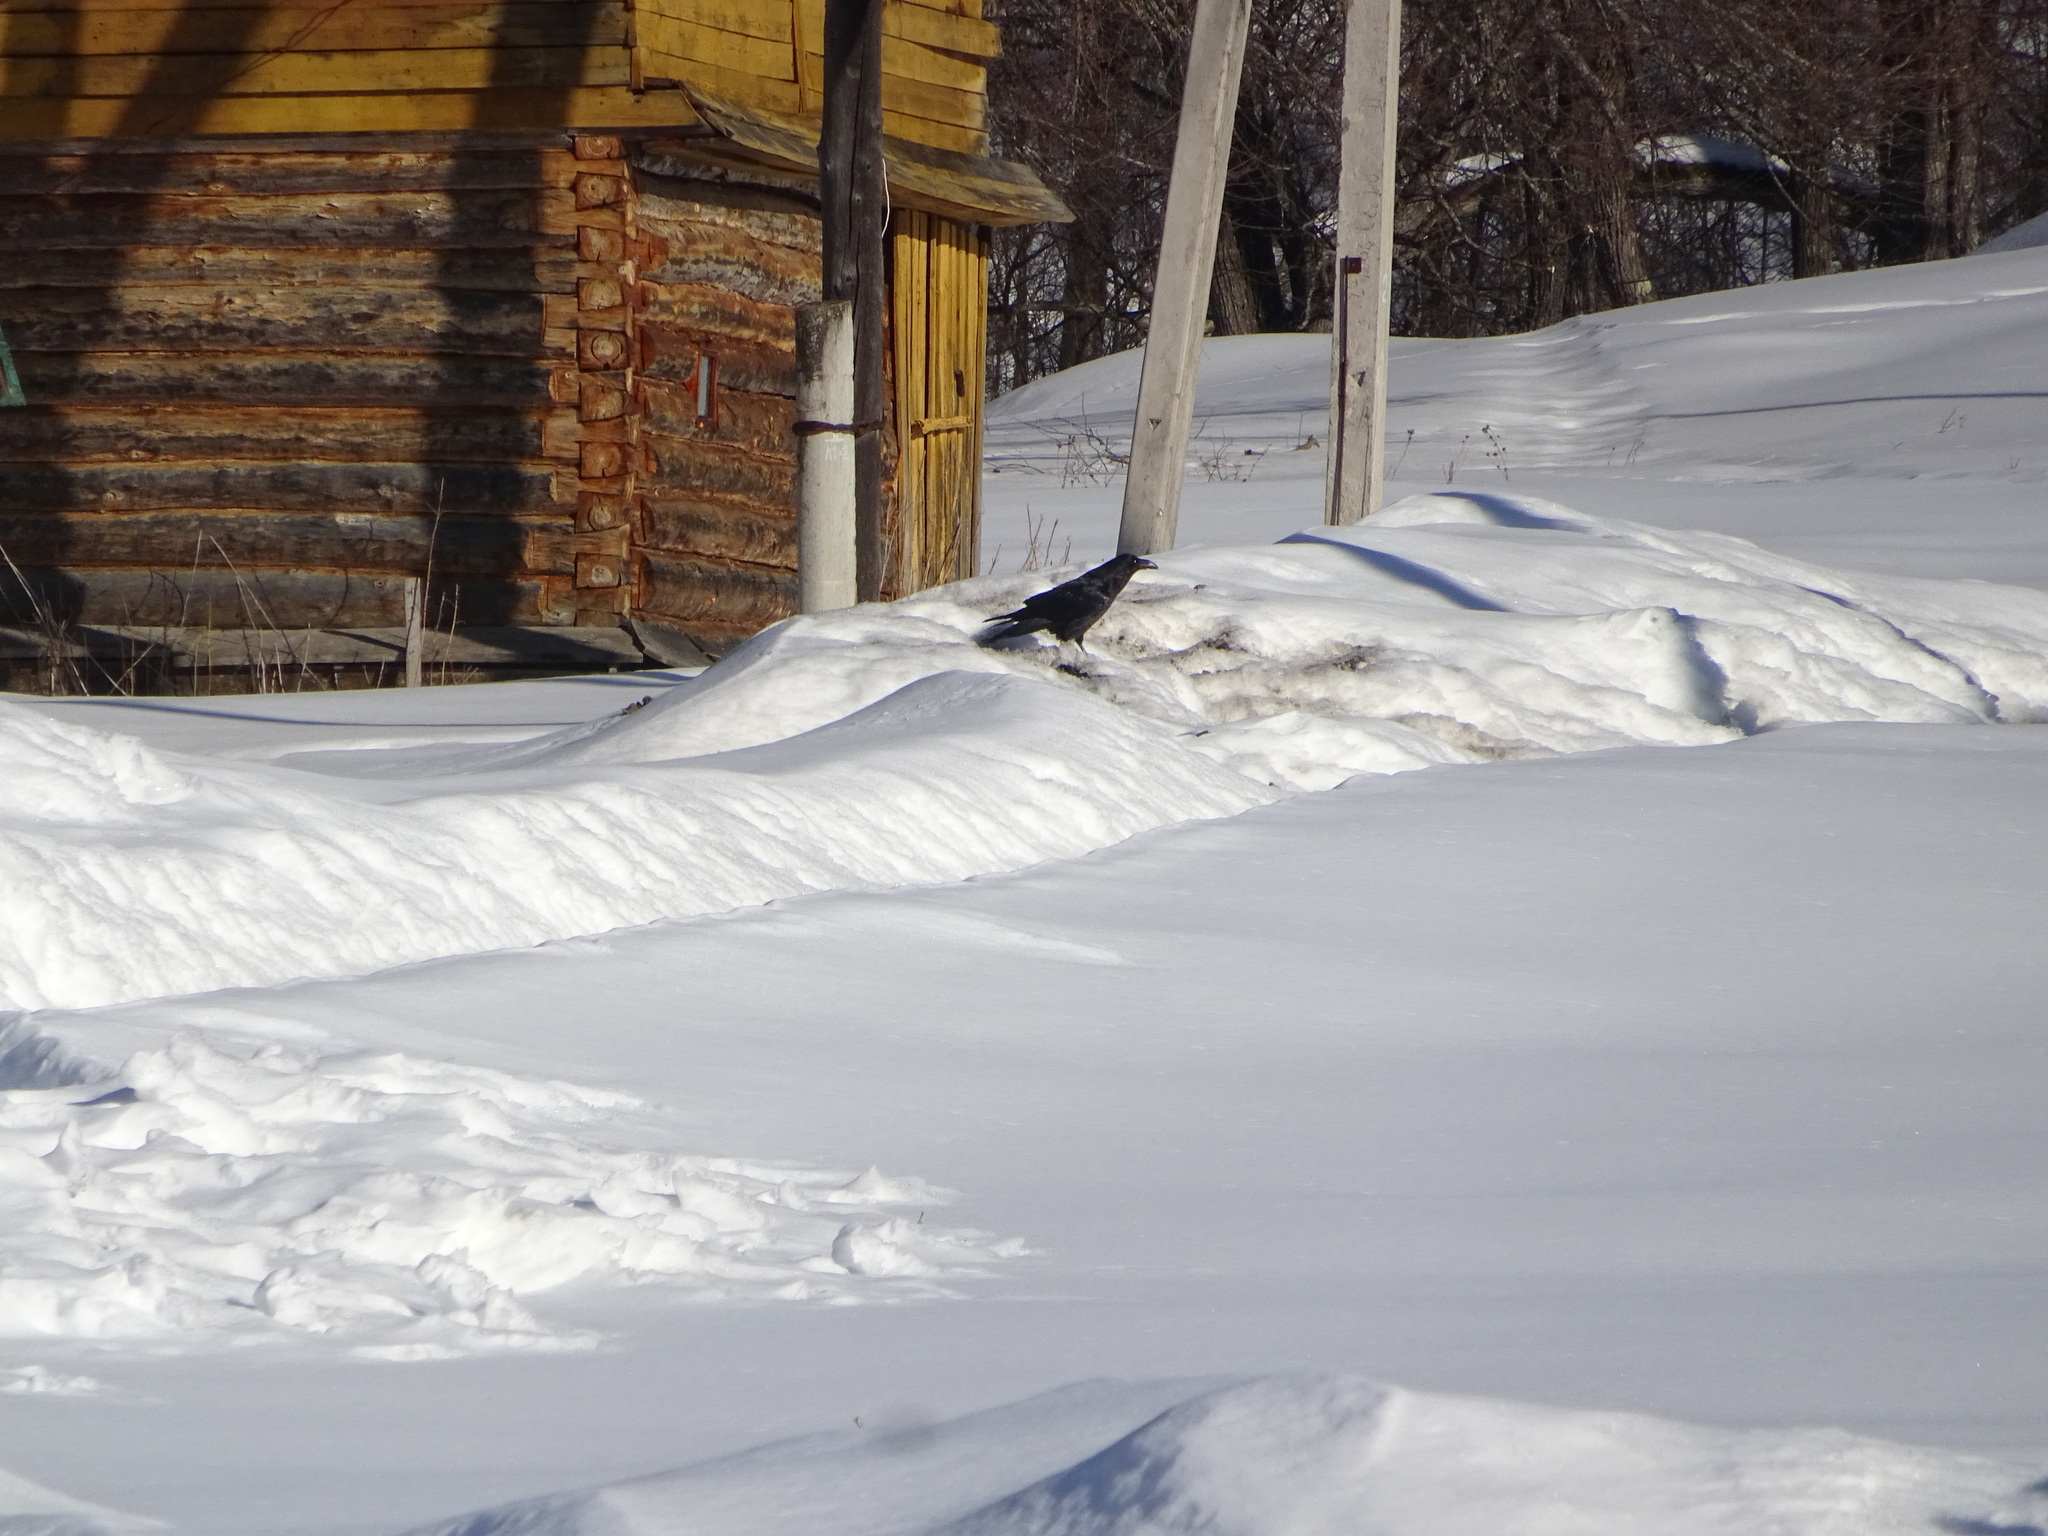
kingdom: Animalia
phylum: Chordata
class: Aves
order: Passeriformes
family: Corvidae
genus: Corvus
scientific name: Corvus corax
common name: Common raven
